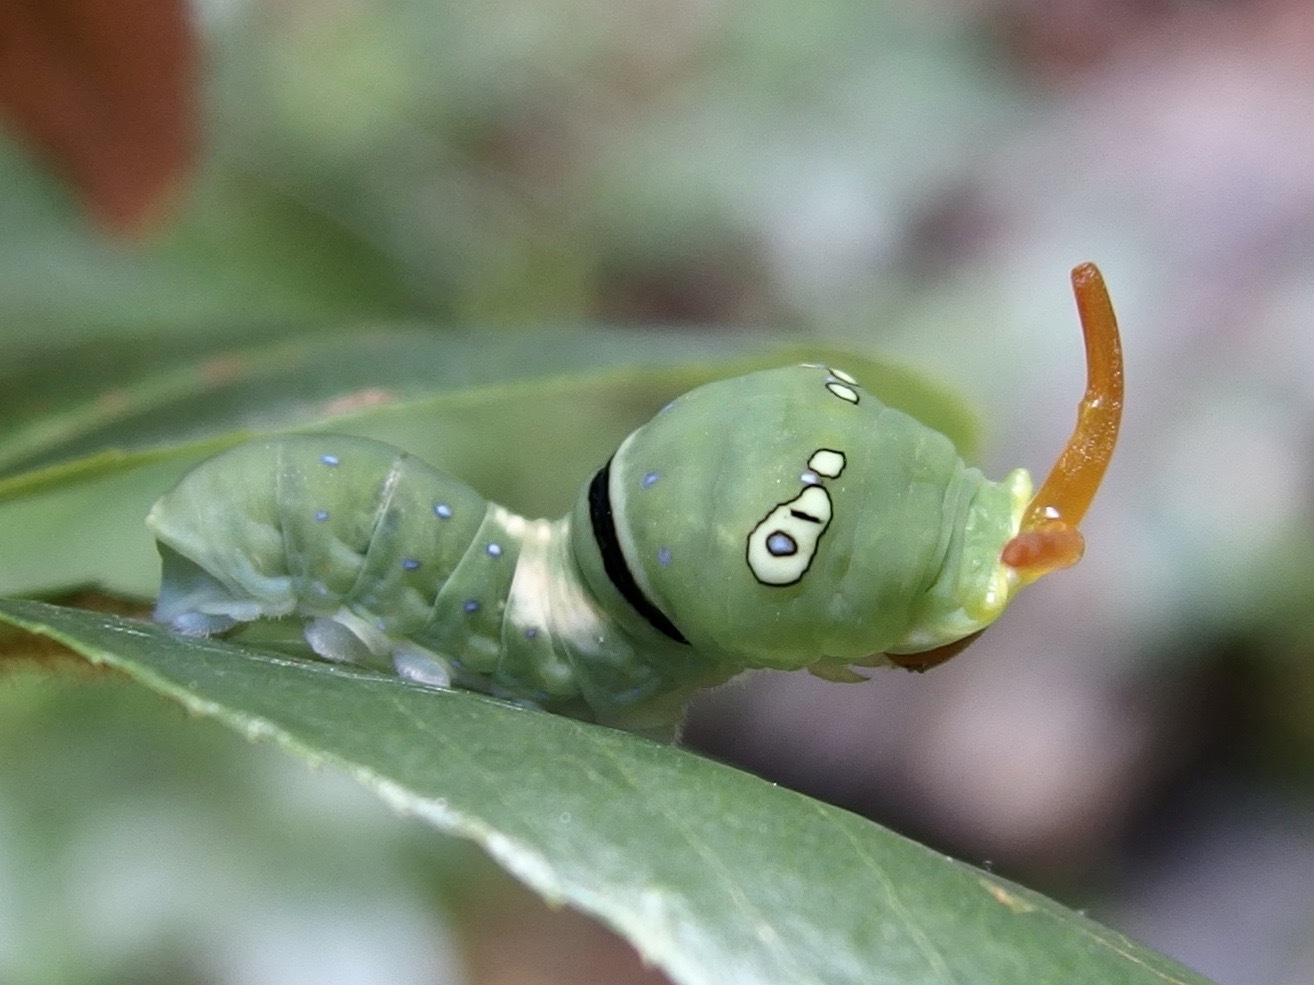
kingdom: Animalia
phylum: Arthropoda
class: Insecta
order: Lepidoptera
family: Papilionidae
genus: Papilio
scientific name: Papilio multicaudata
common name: Two-tailed tiger swallowtail
